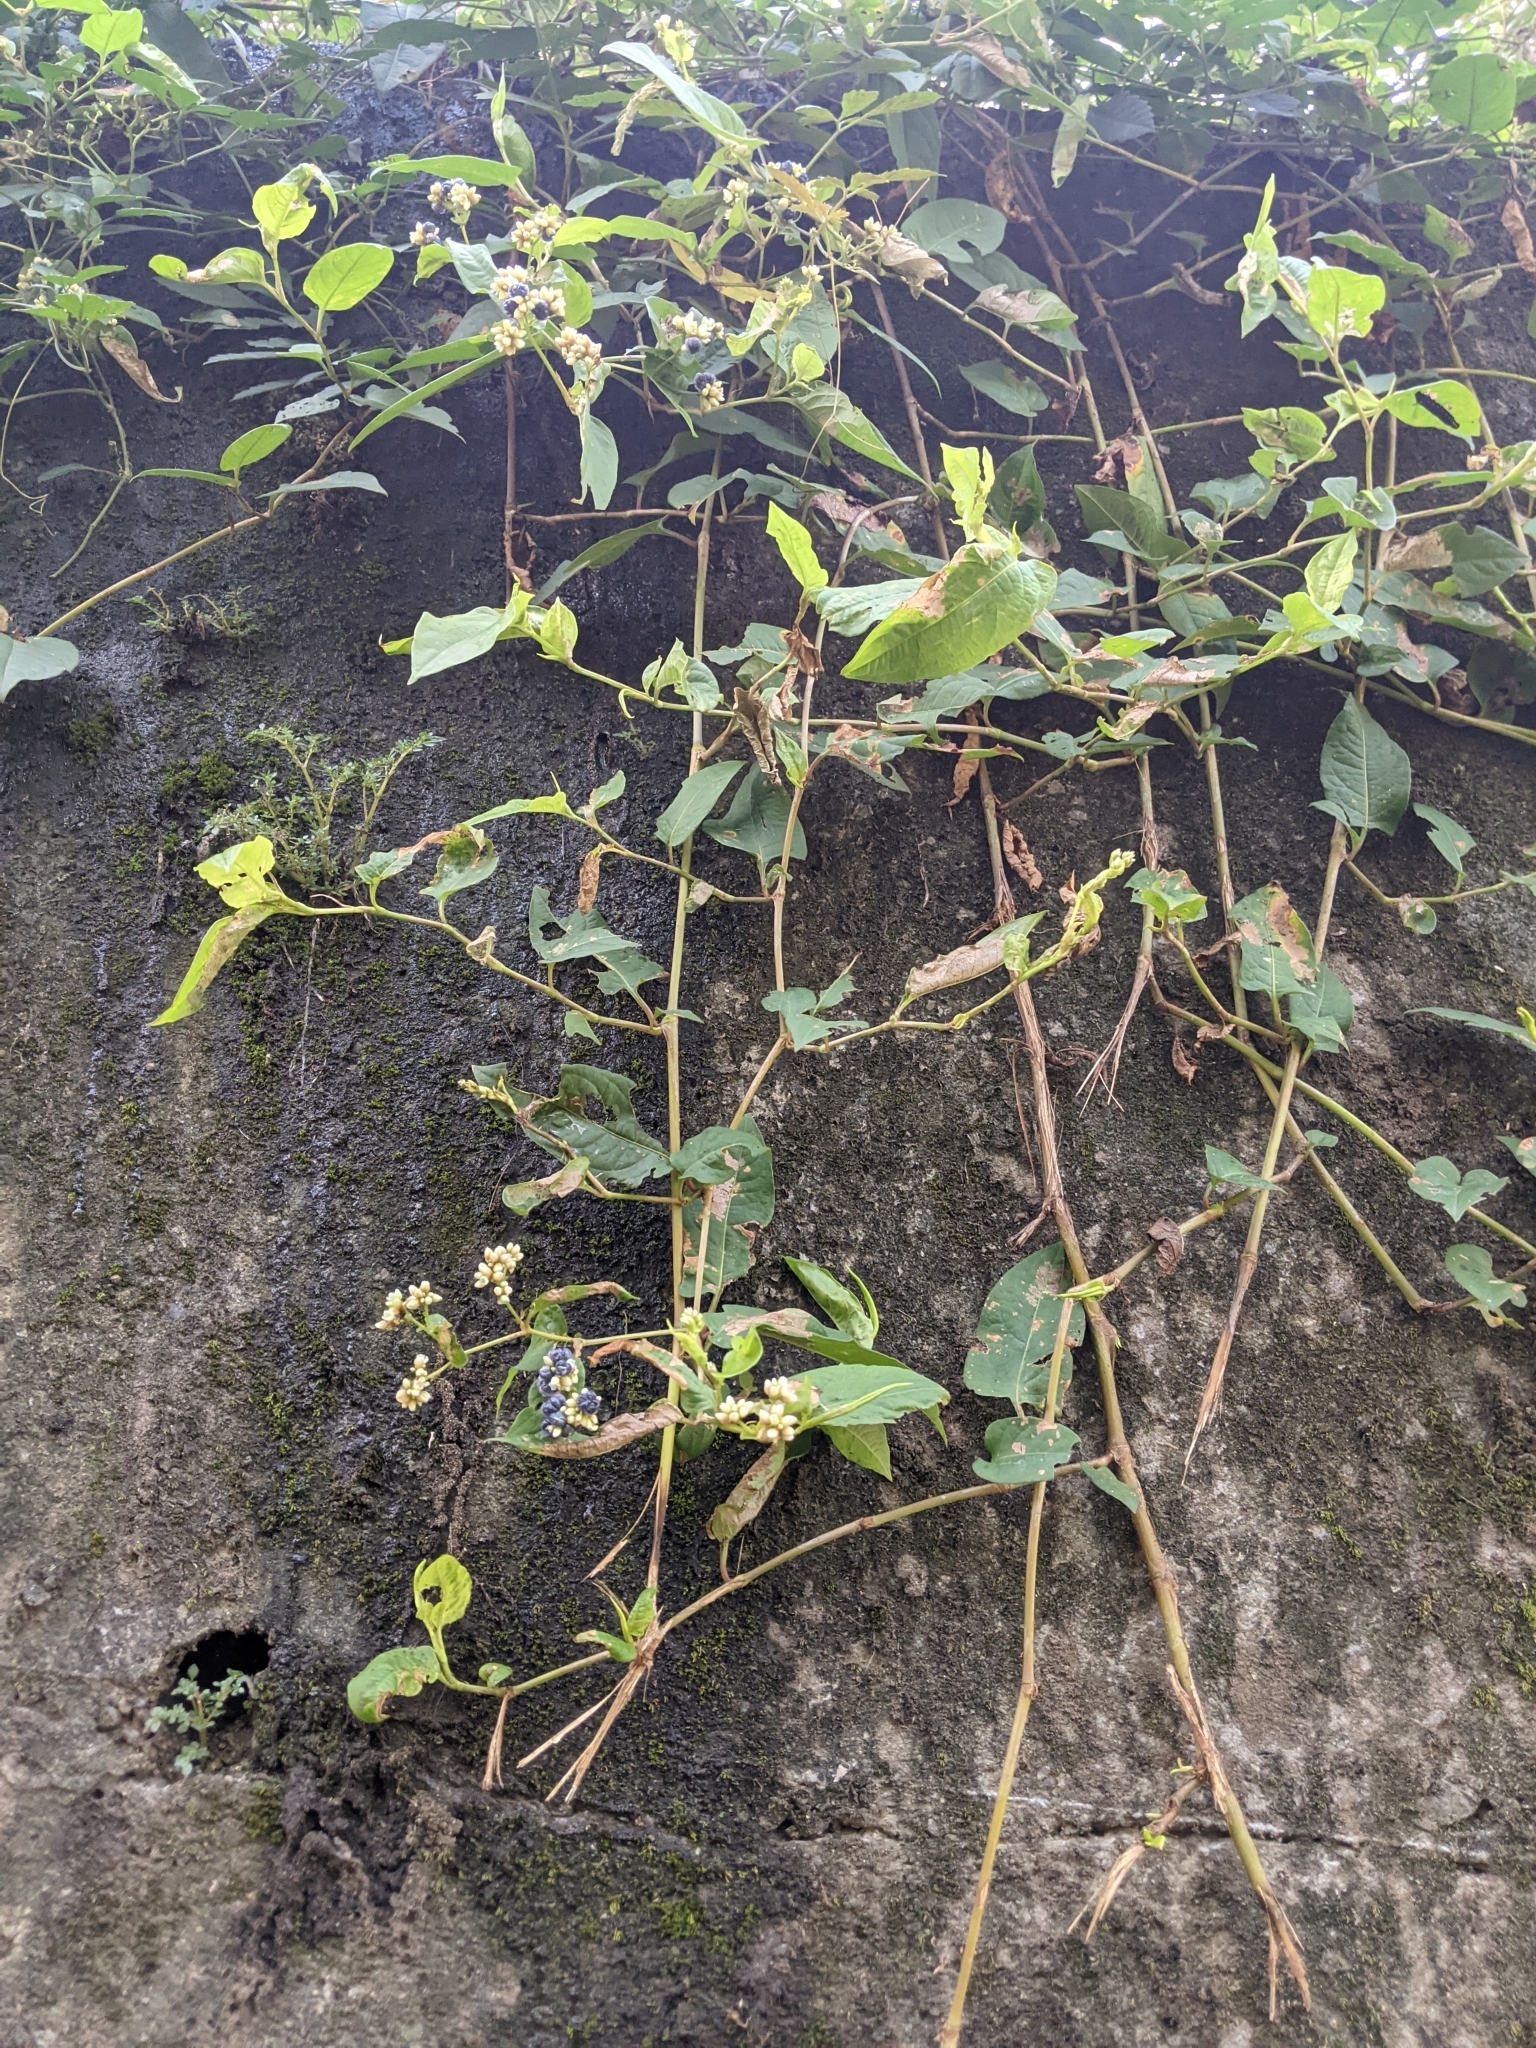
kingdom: Plantae
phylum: Tracheophyta
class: Magnoliopsida
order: Caryophyllales
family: Polygonaceae
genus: Persicaria
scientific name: Persicaria chinensis
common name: Chinese knotweed
